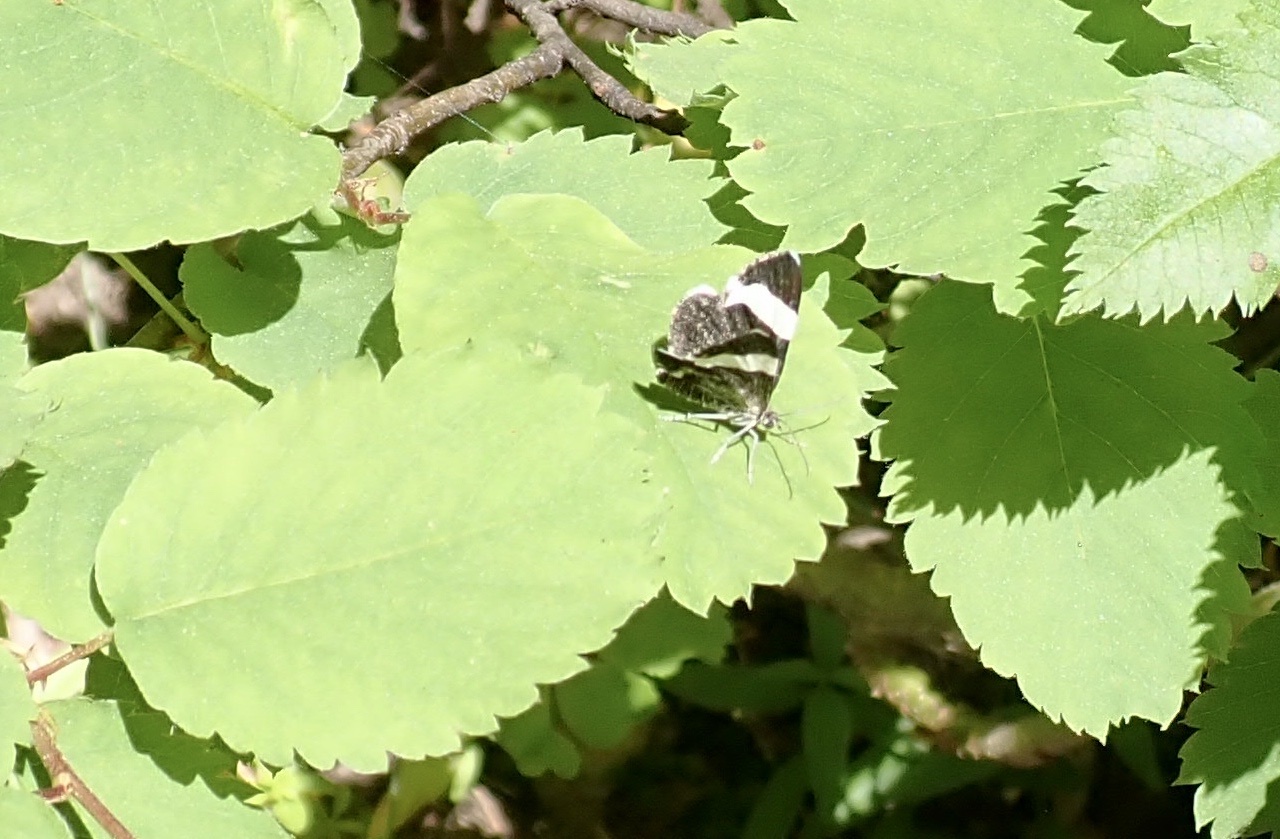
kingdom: Animalia
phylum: Arthropoda
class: Insecta
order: Lepidoptera
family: Geometridae
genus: Trichodezia
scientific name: Trichodezia albovittata
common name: White striped black
